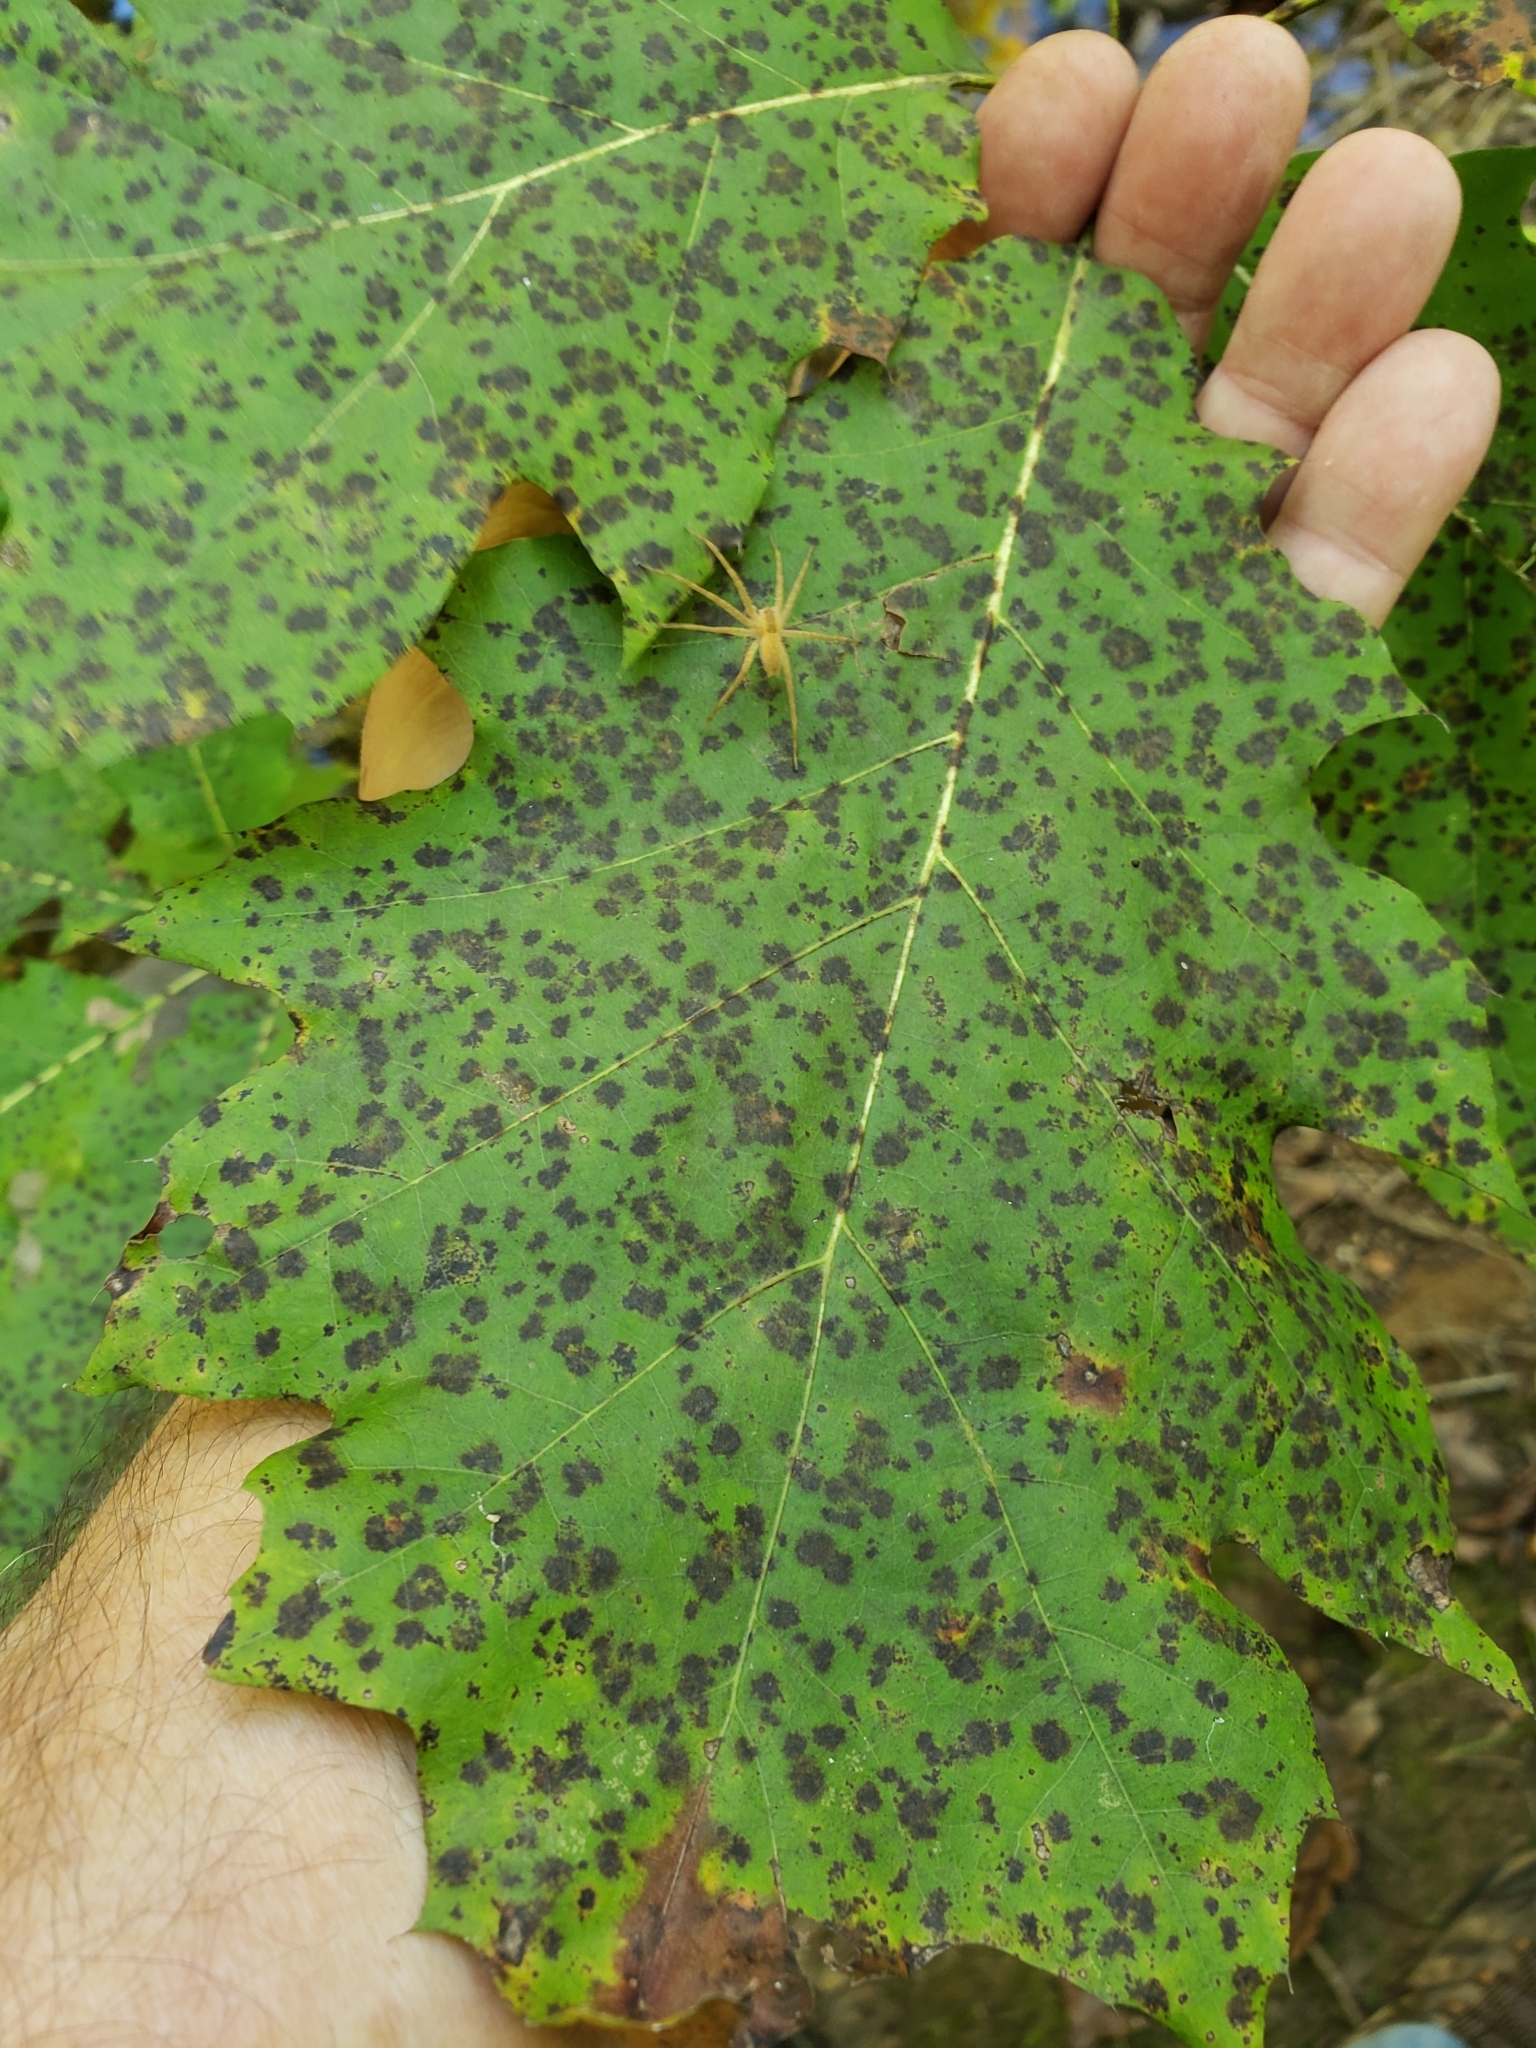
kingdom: Animalia
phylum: Arthropoda
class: Arachnida
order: Araneae
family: Pisauridae
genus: Pisaurina
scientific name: Pisaurina mira
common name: American nursery web spider
